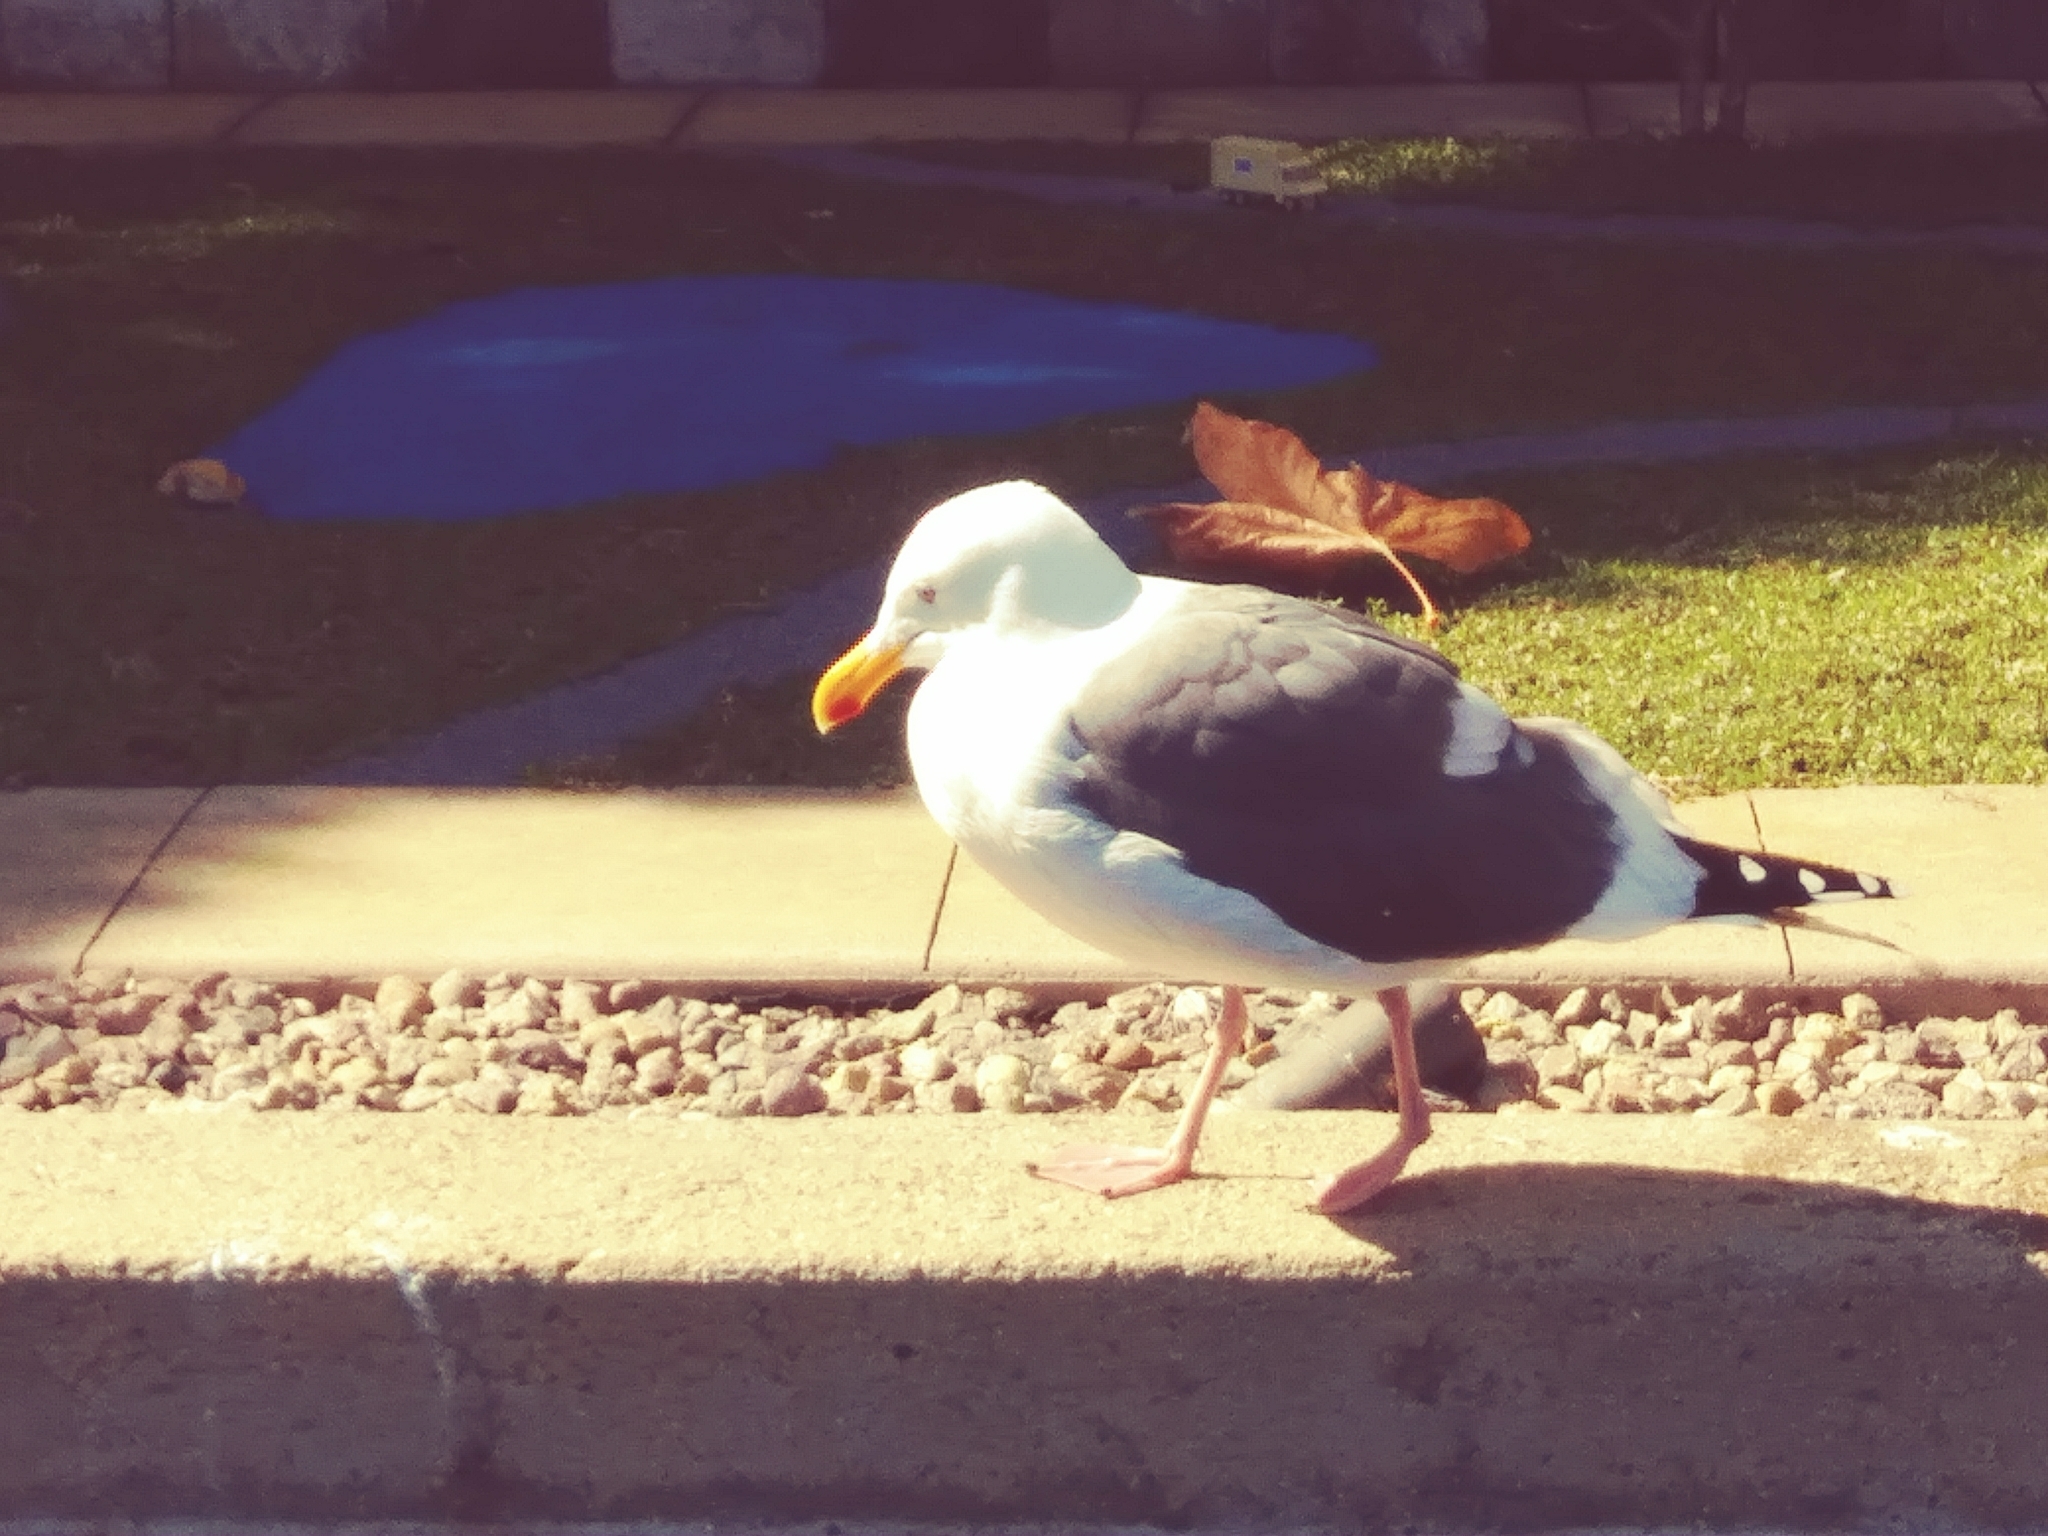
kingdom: Animalia
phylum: Chordata
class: Aves
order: Charadriiformes
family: Laridae
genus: Larus
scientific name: Larus occidentalis
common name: Western gull
